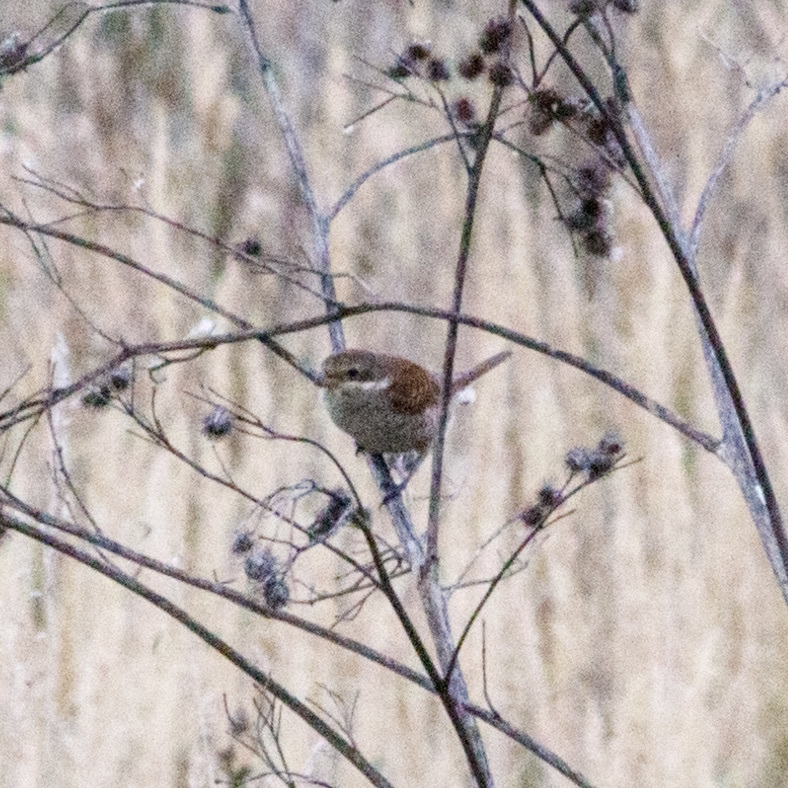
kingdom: Animalia
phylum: Chordata
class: Aves
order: Passeriformes
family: Laniidae
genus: Lanius
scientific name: Lanius collurio
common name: Red-backed shrike
